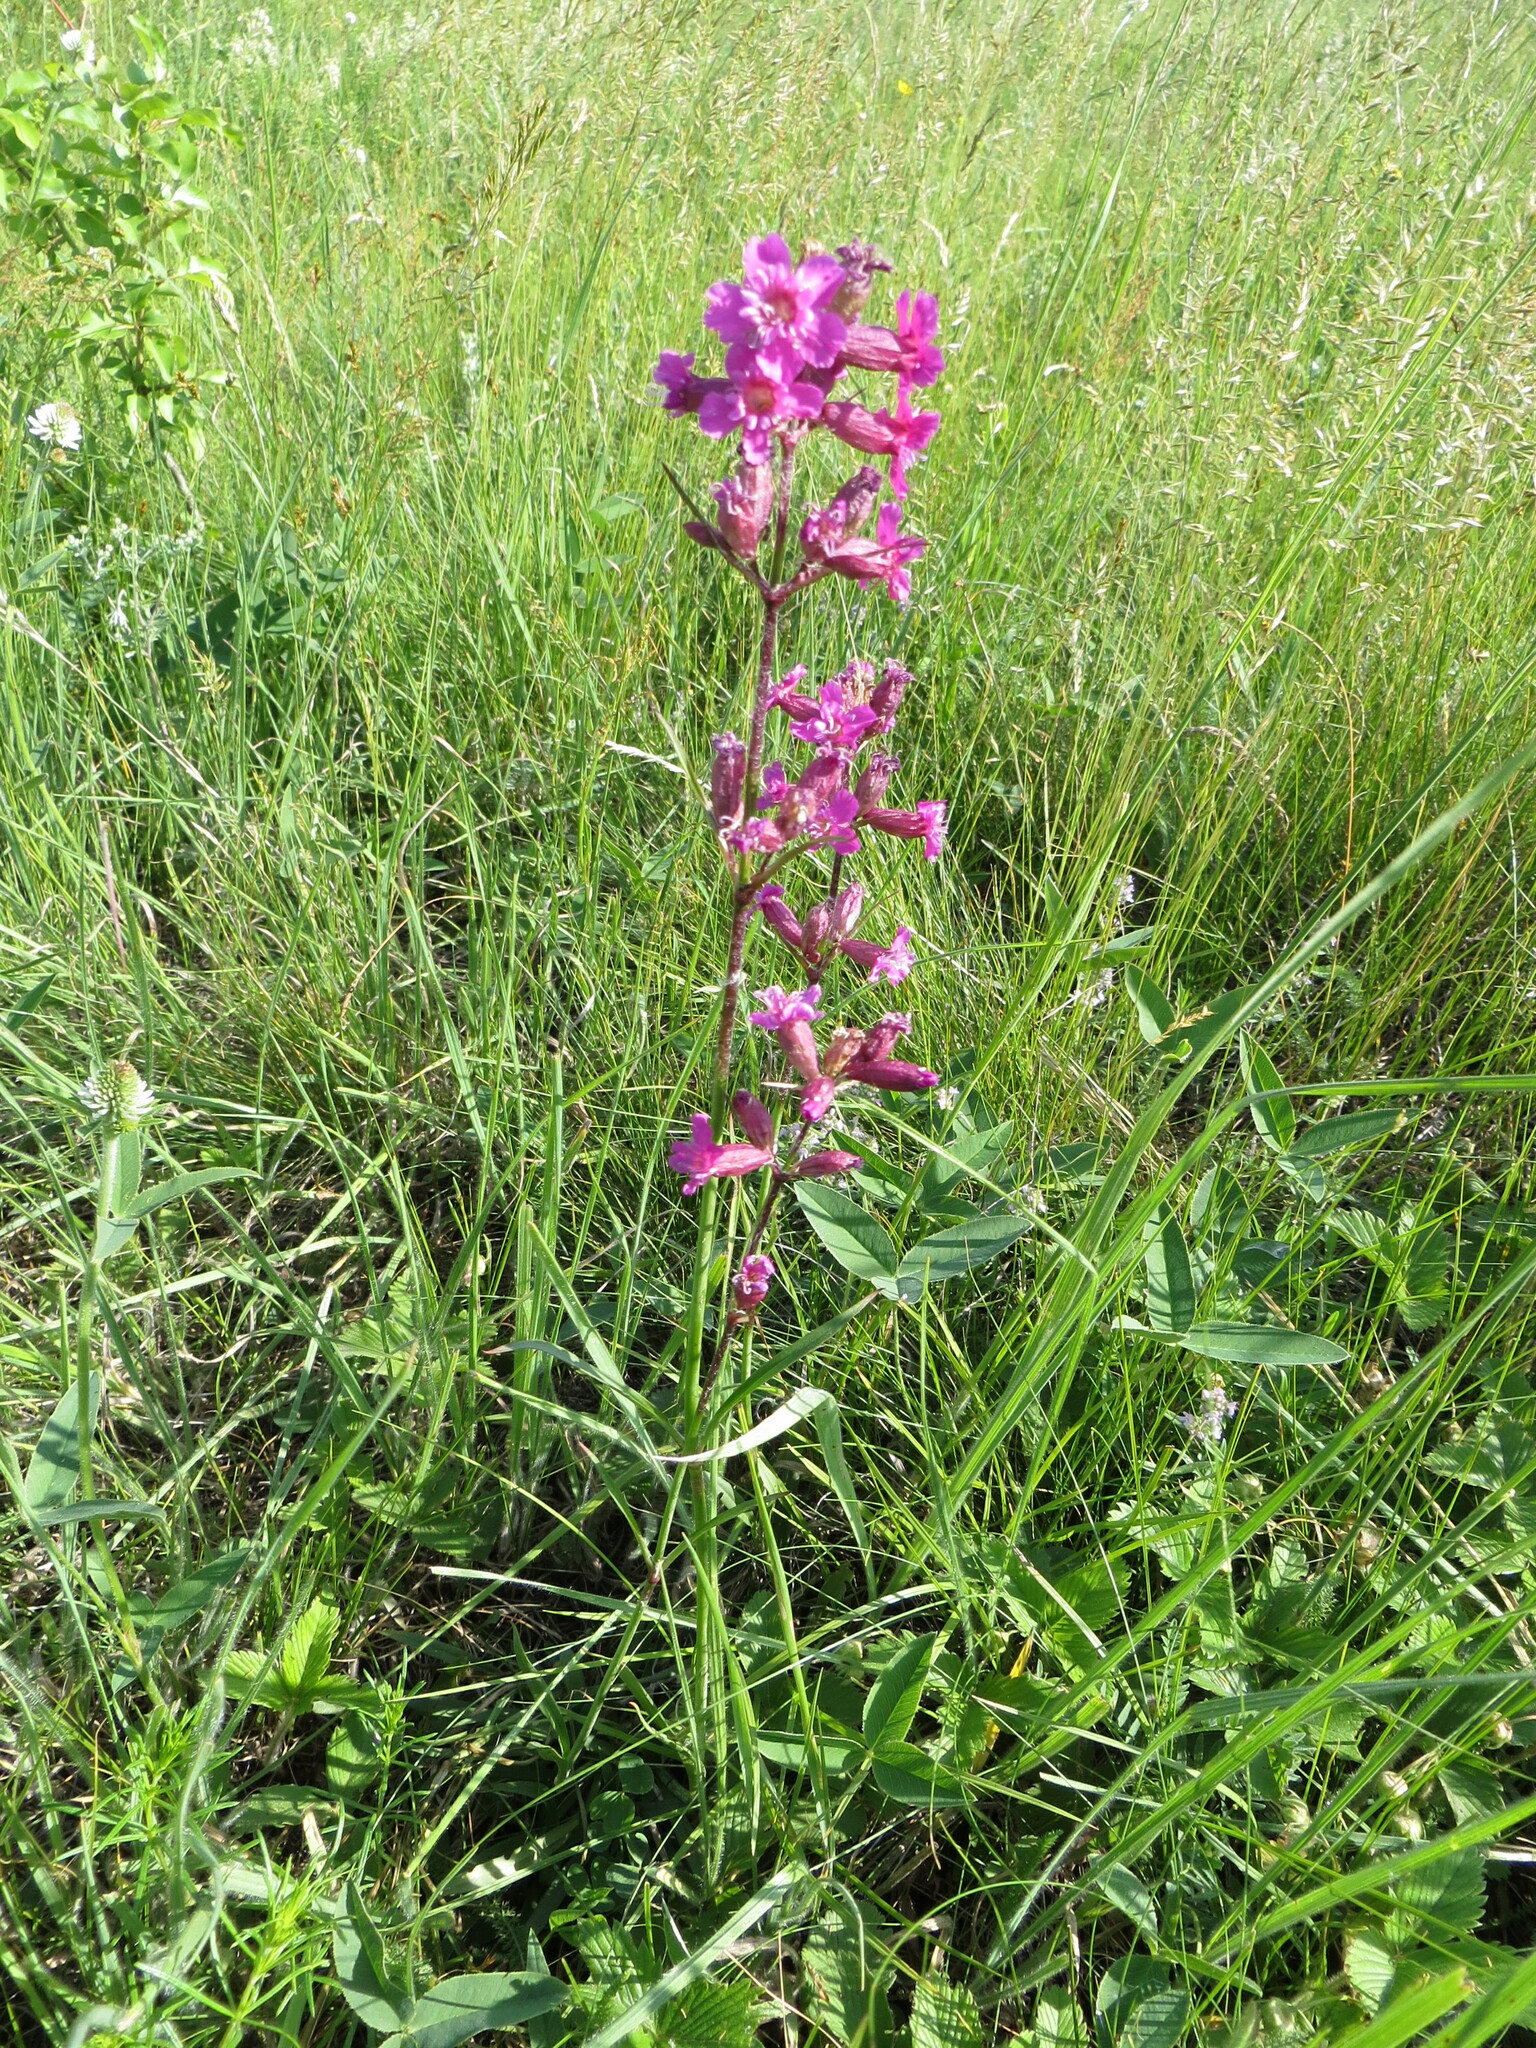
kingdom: Plantae
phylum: Tracheophyta
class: Magnoliopsida
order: Caryophyllales
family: Caryophyllaceae
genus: Viscaria
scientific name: Viscaria vulgaris
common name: Clammy campion
